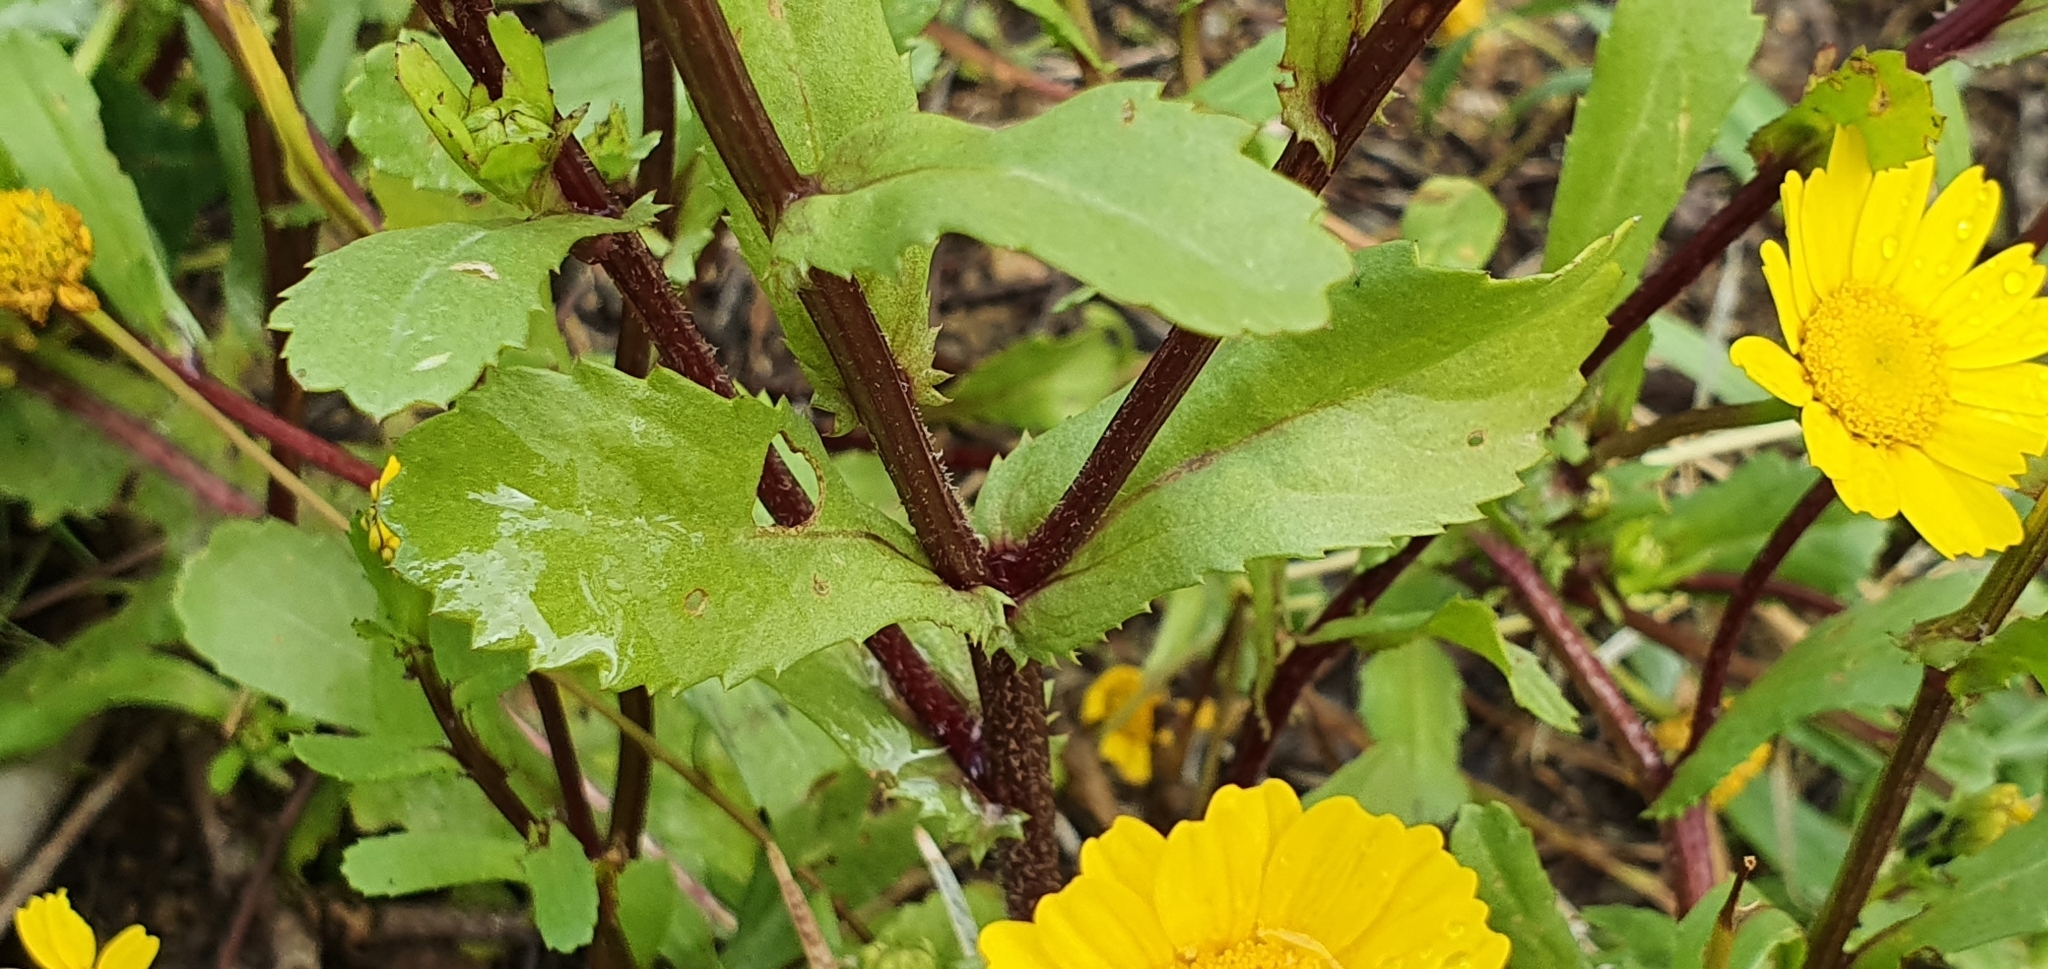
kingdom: Plantae
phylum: Tracheophyta
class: Magnoliopsida
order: Asterales
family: Asteraceae
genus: Coleostephus
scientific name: Coleostephus myconis
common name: Mediterranean marigold
